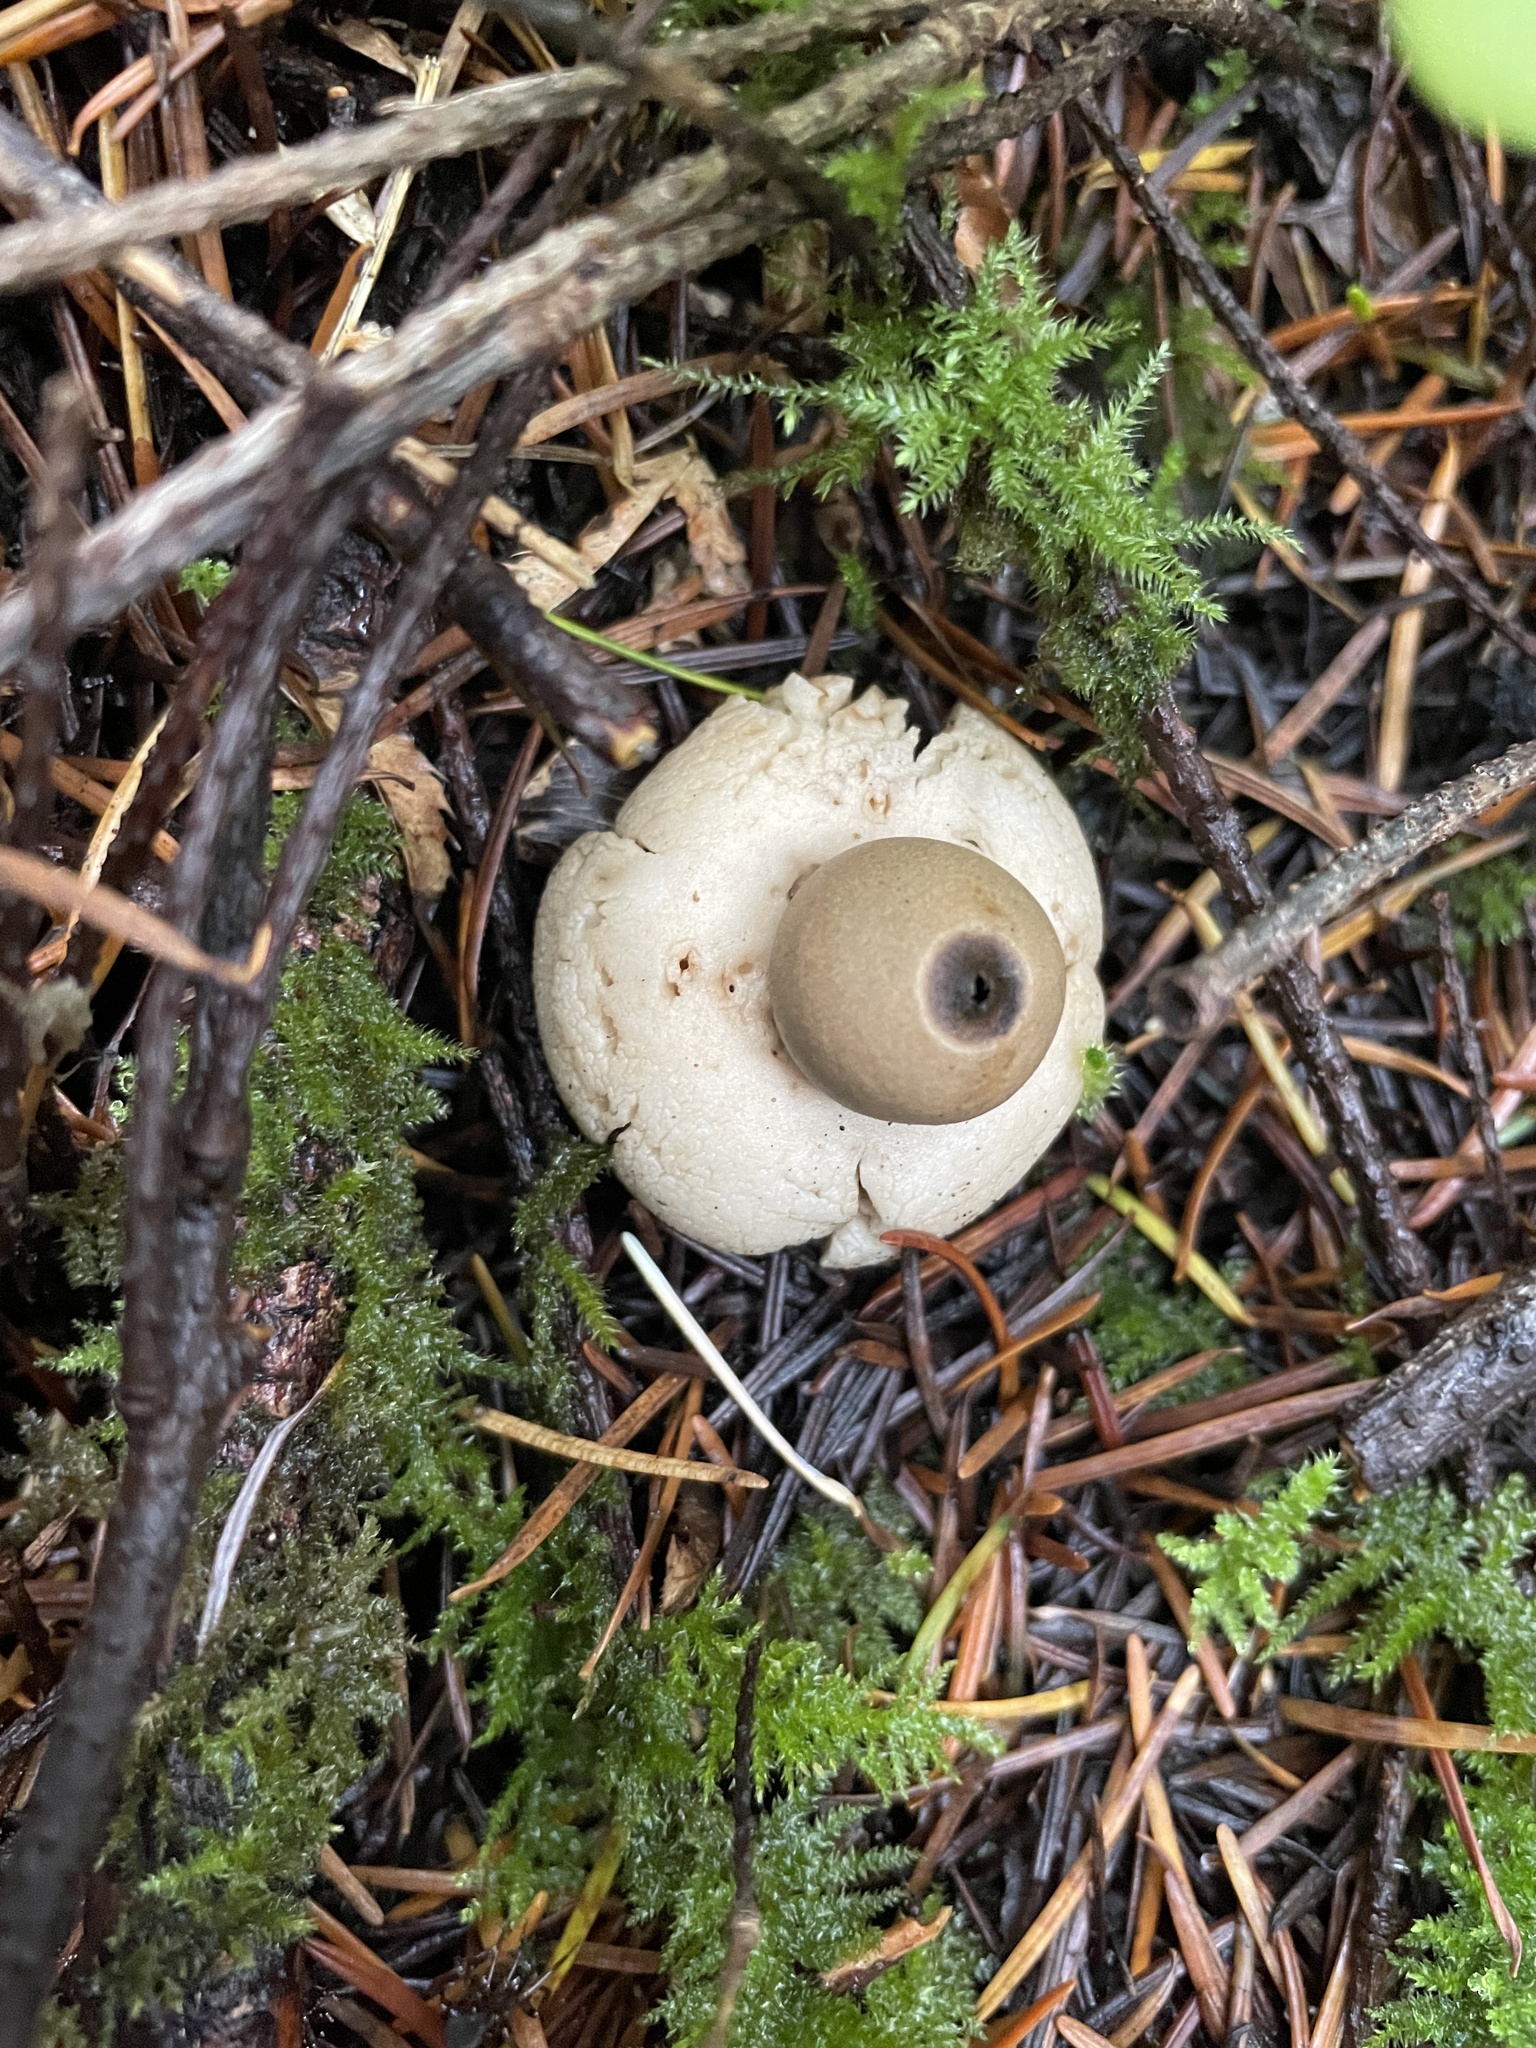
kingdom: Fungi
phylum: Basidiomycota
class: Agaricomycetes
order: Geastrales
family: Geastraceae
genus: Geastrum
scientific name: Geastrum saccatum
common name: Rounded earthstar
